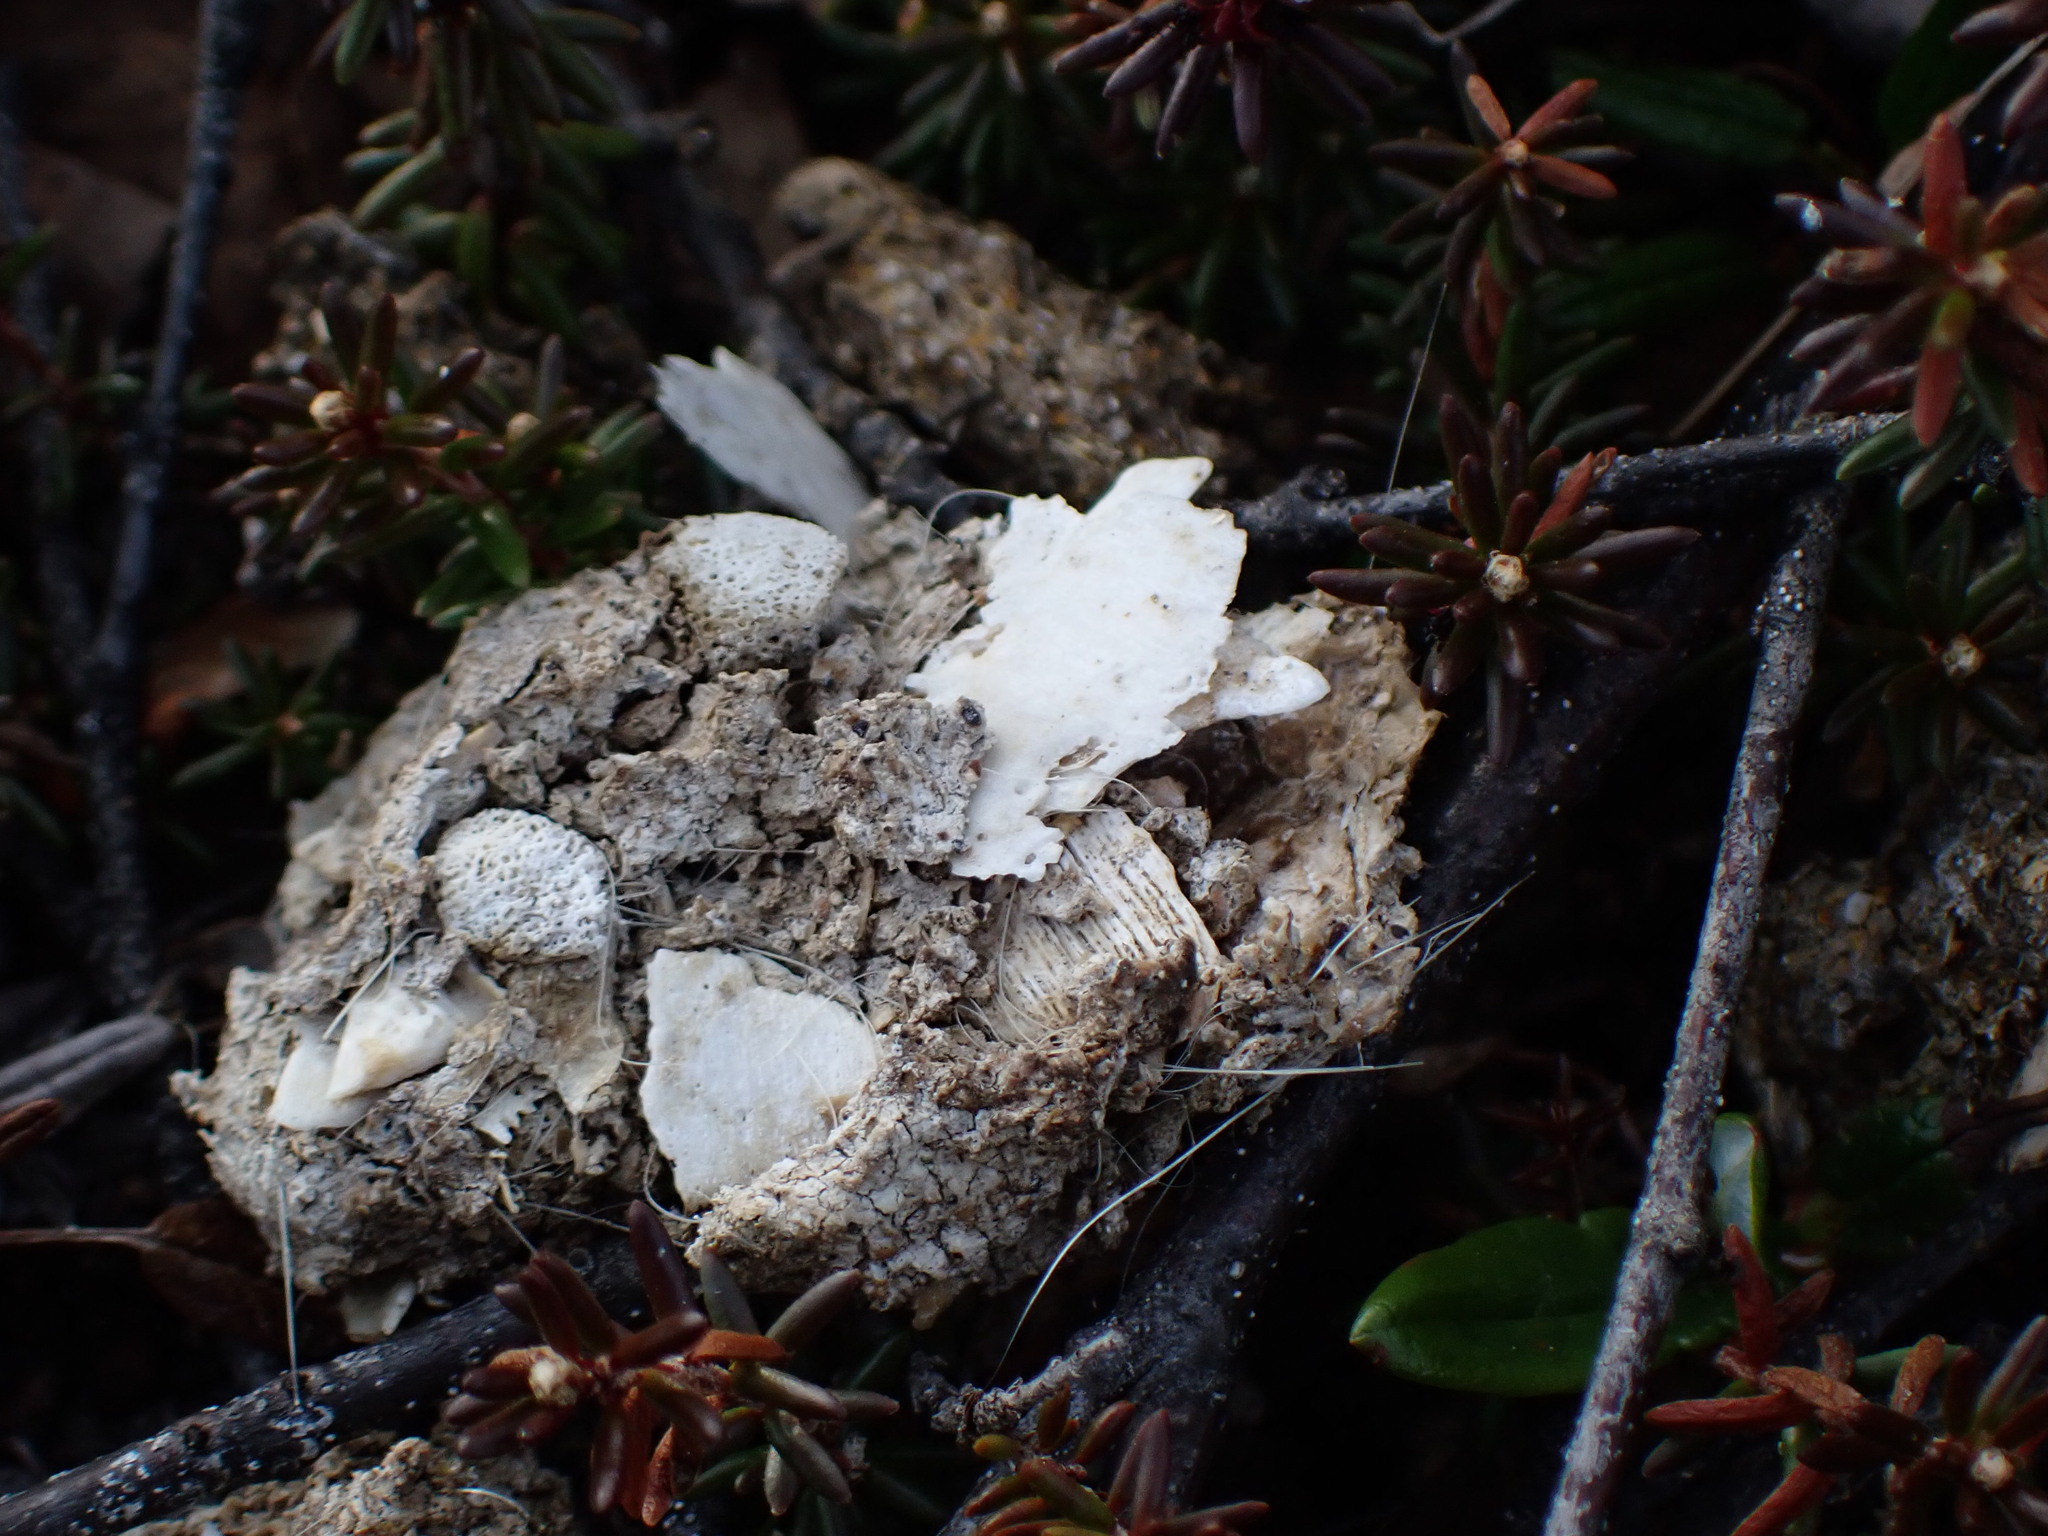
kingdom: Animalia
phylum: Chordata
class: Mammalia
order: Carnivora
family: Canidae
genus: Canis
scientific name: Canis lupus
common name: Gray wolf
